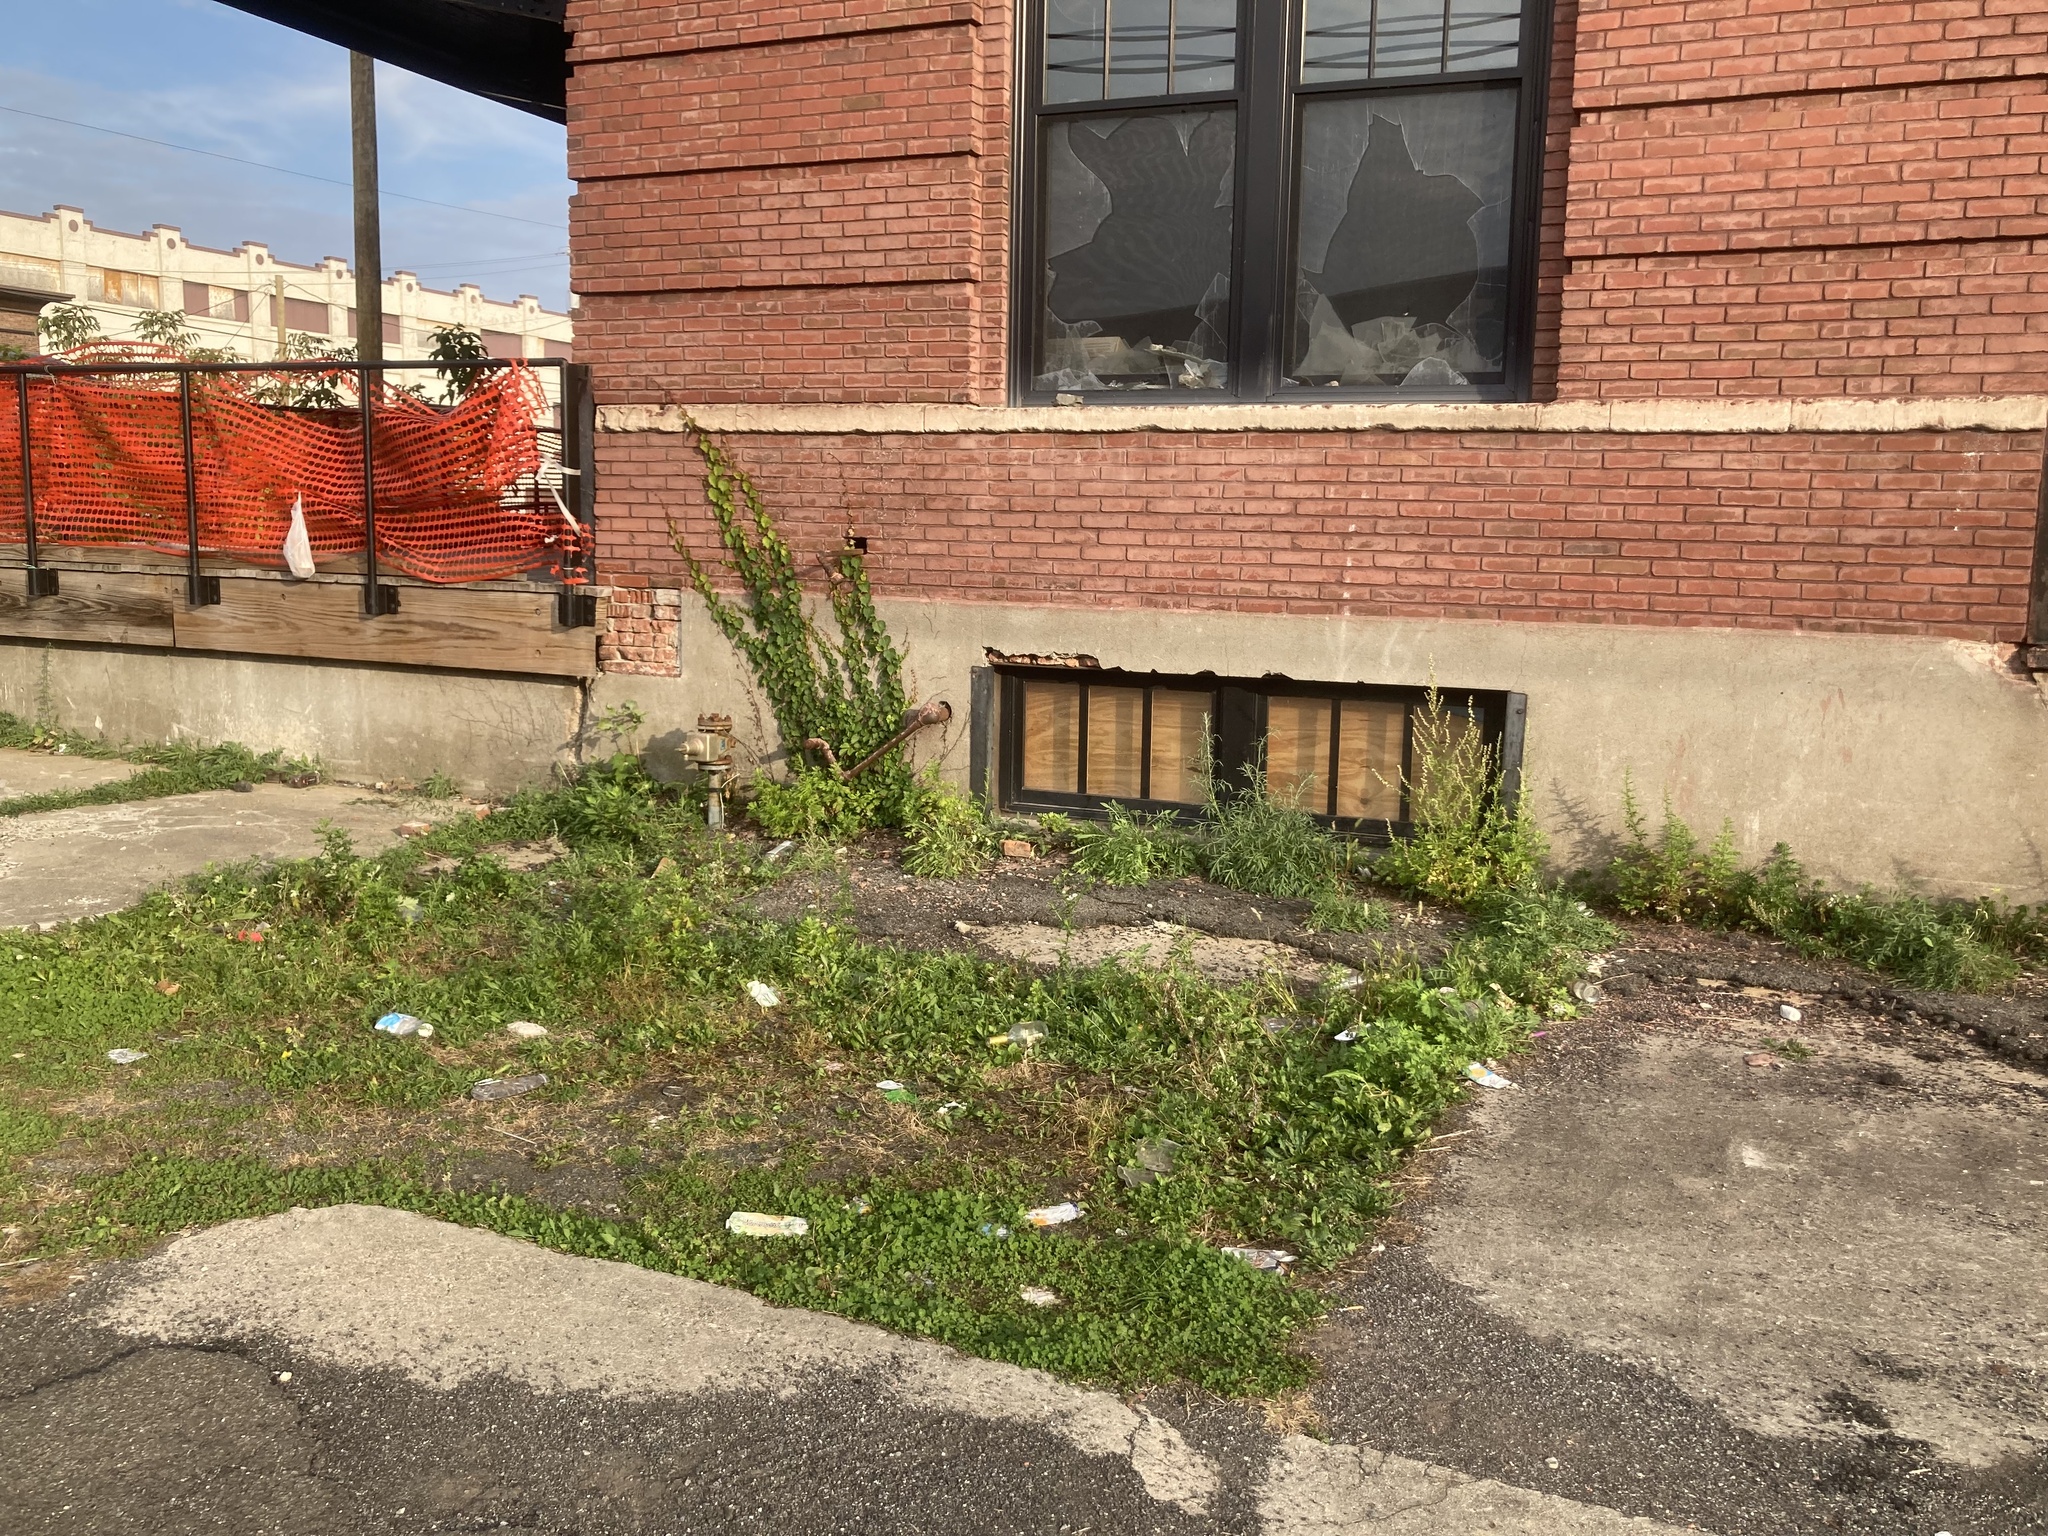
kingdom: Plantae
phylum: Tracheophyta
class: Magnoliopsida
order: Asterales
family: Asteraceae
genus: Artemisia
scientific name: Artemisia vulgaris
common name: Mugwort
